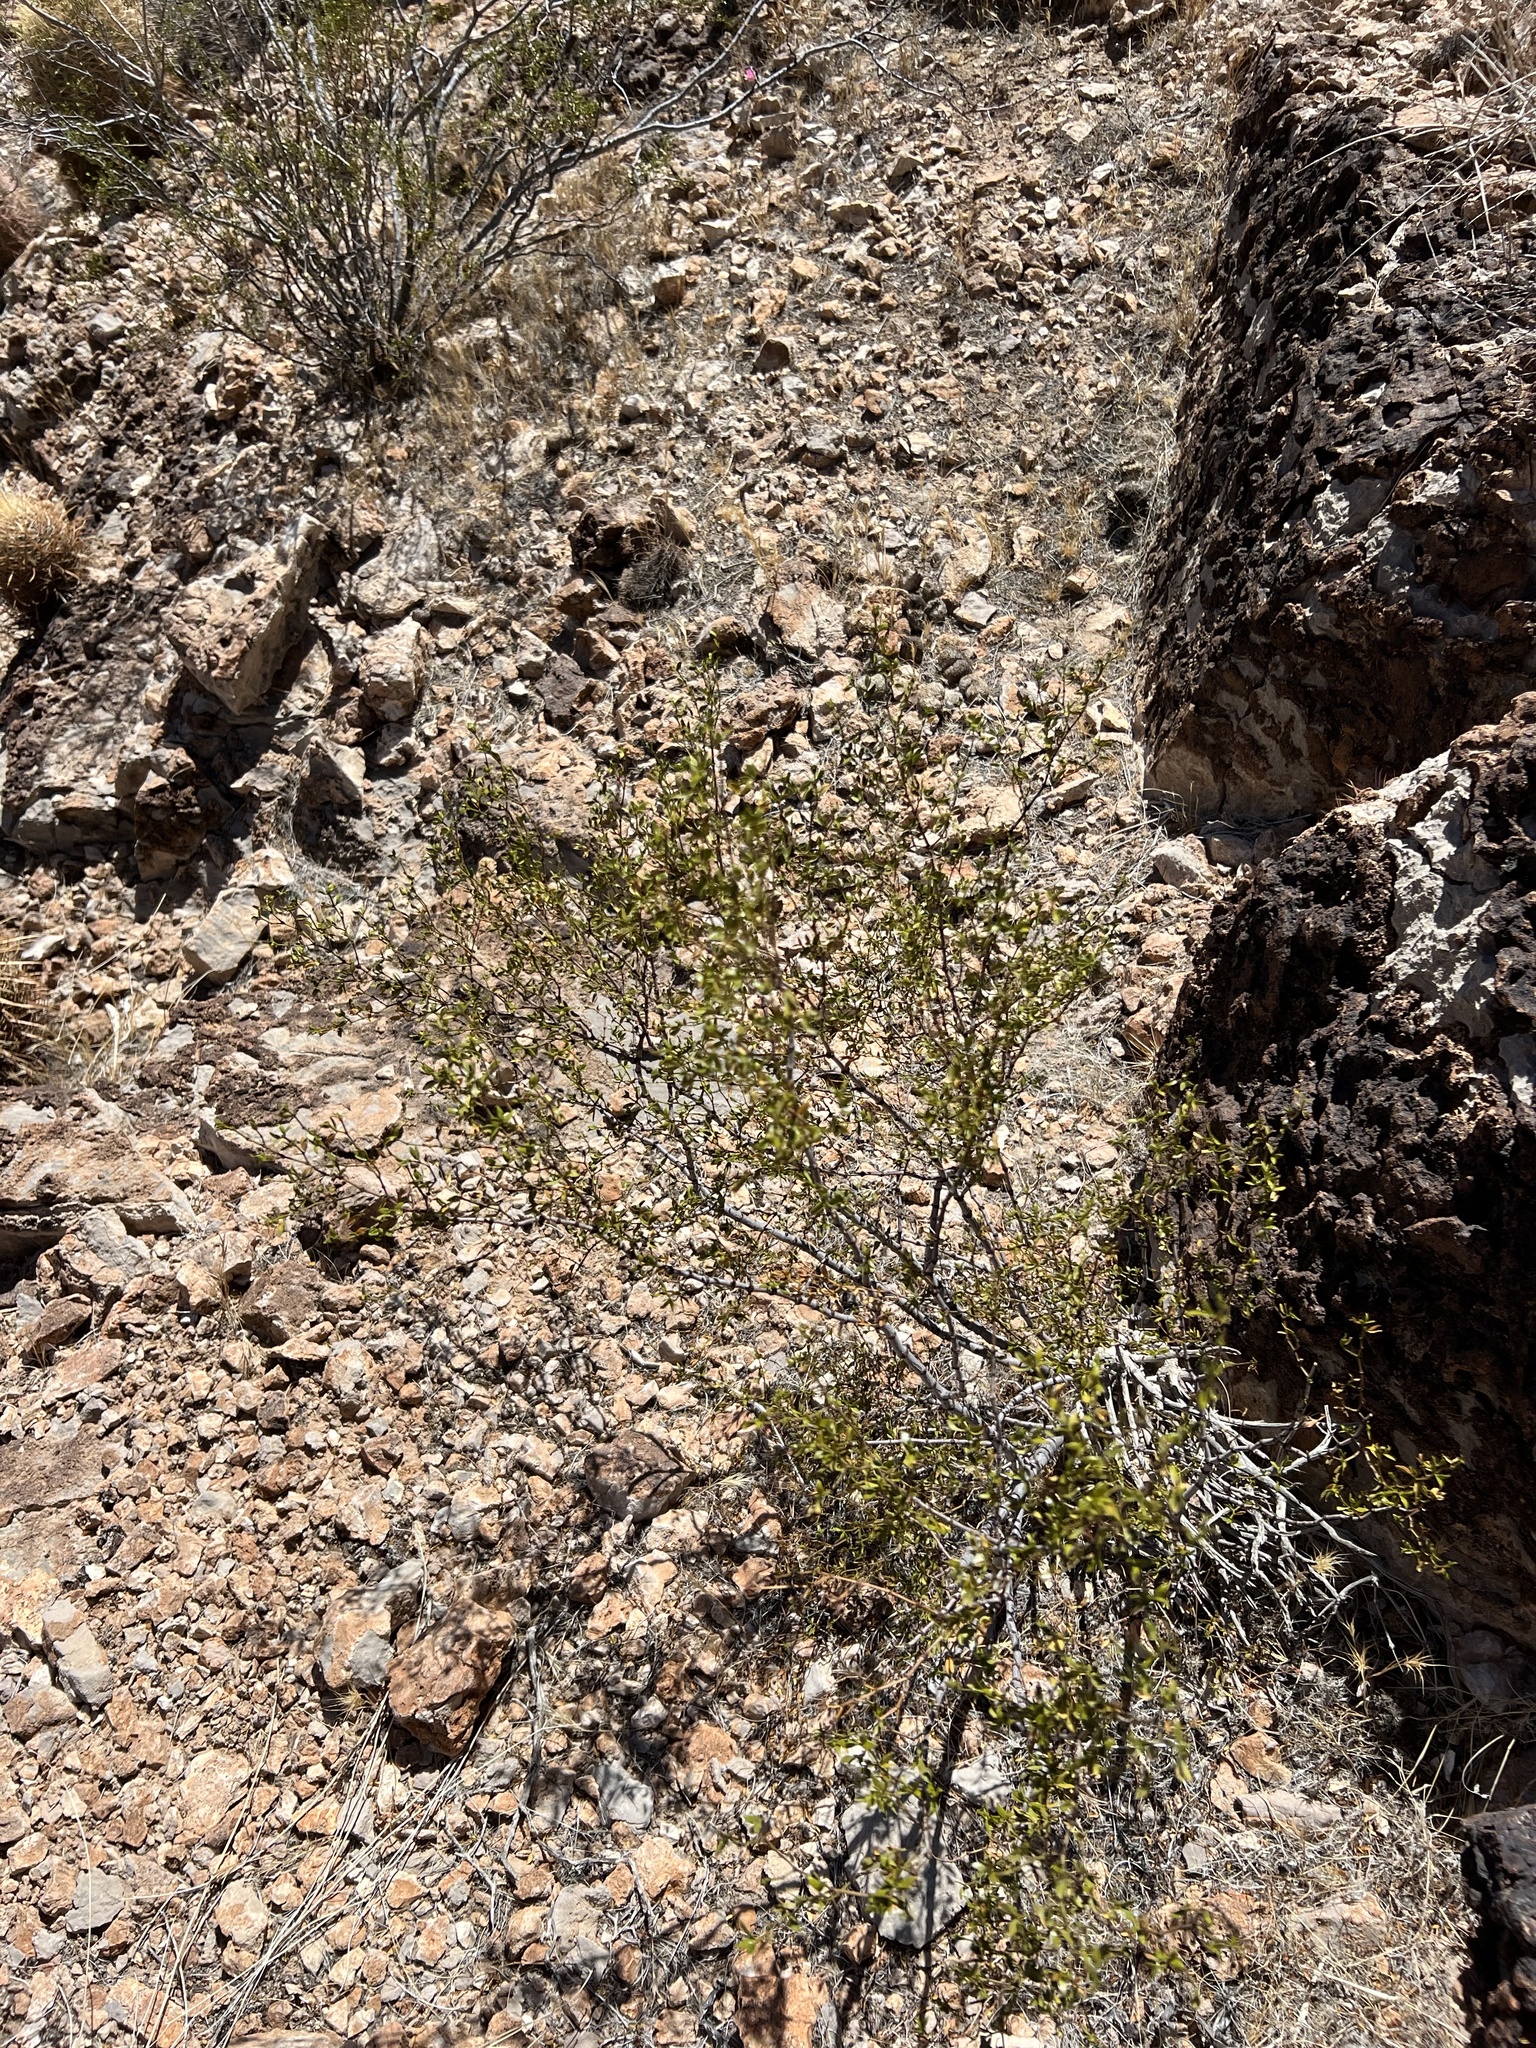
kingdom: Plantae
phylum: Tracheophyta
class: Magnoliopsida
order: Zygophyllales
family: Zygophyllaceae
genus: Larrea
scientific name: Larrea tridentata
